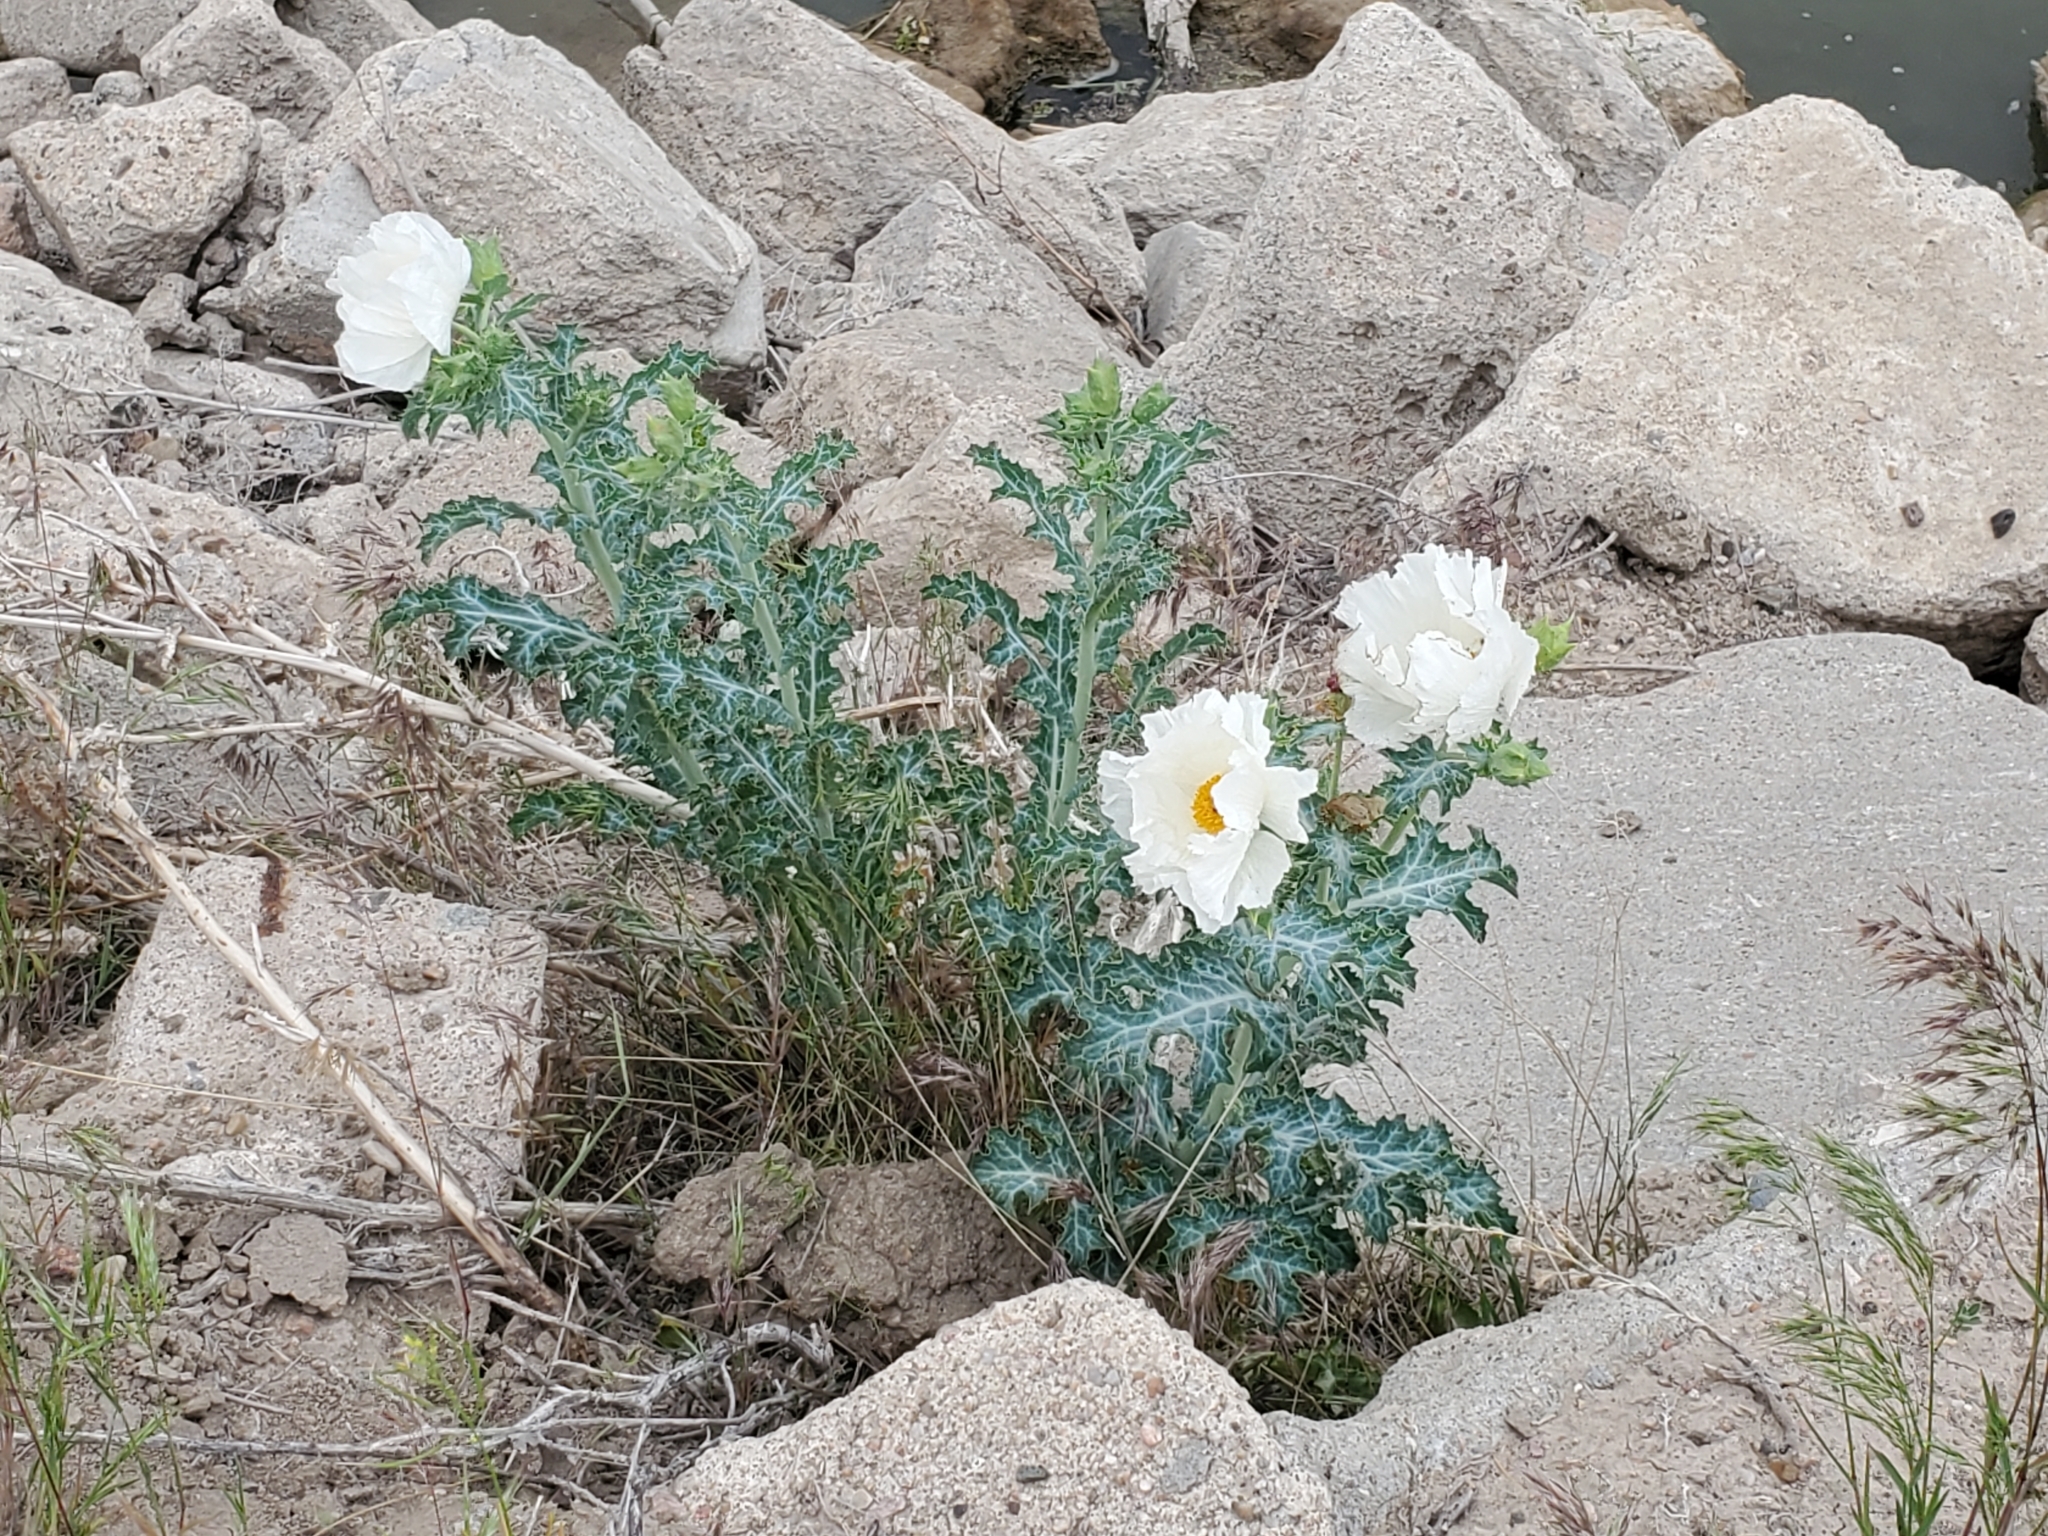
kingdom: Plantae
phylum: Tracheophyta
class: Magnoliopsida
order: Ranunculales
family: Papaveraceae
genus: Argemone
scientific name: Argemone polyanthemos
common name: Plains prickly-poppy
